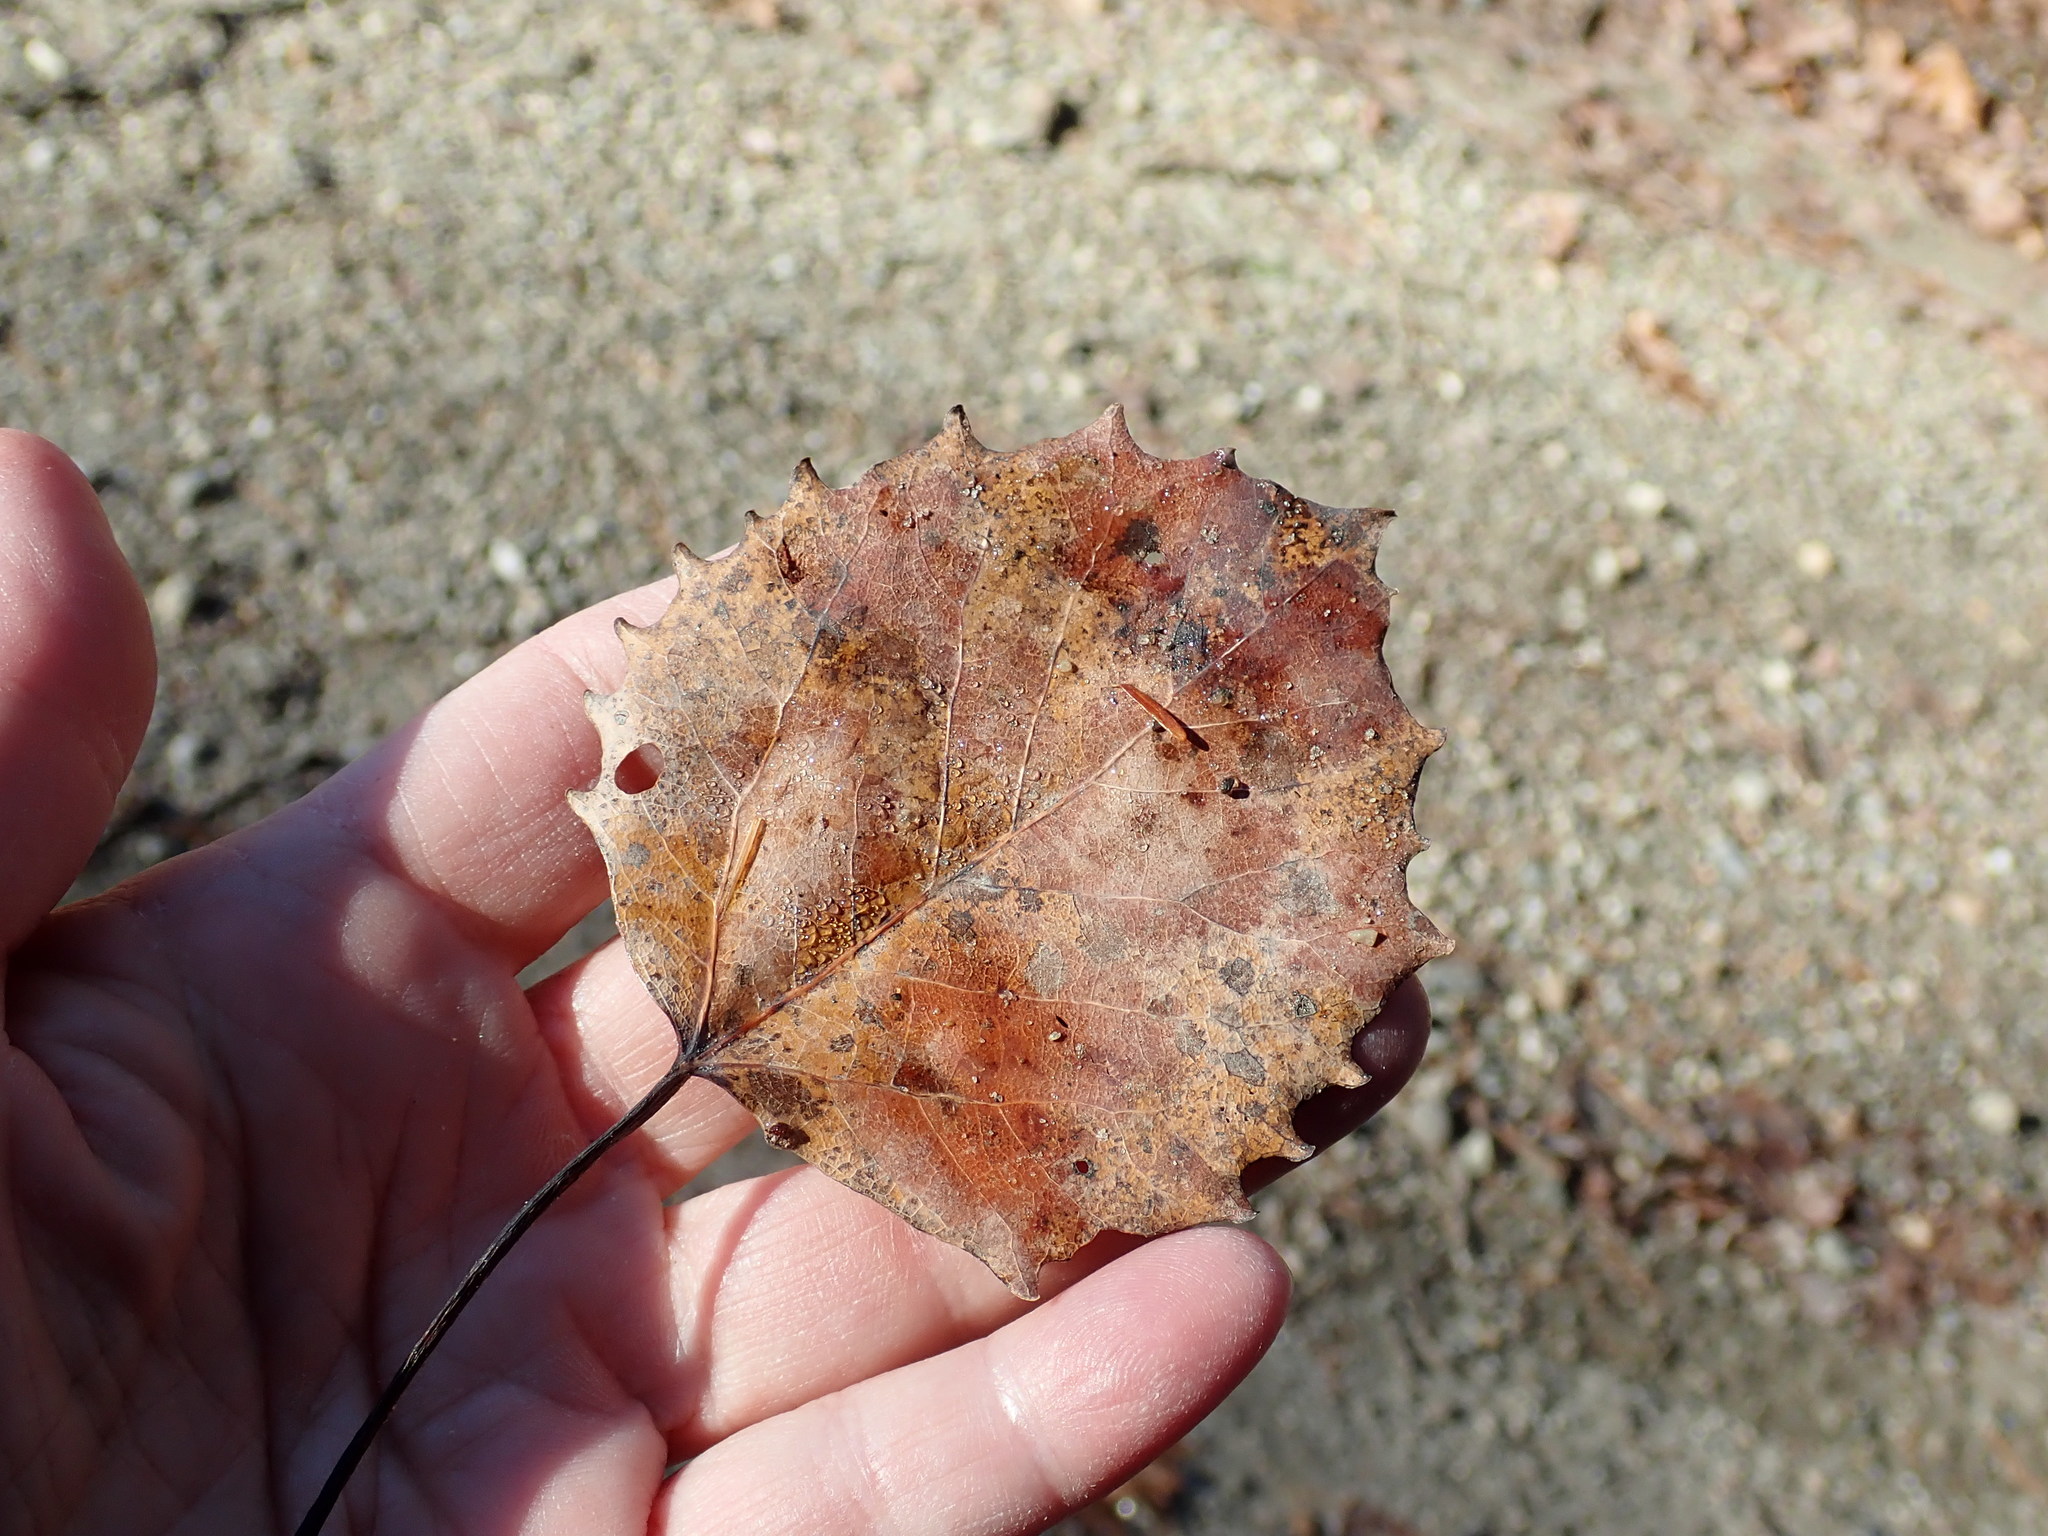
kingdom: Plantae
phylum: Tracheophyta
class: Magnoliopsida
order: Malpighiales
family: Salicaceae
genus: Populus
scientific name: Populus grandidentata
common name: Bigtooth aspen
